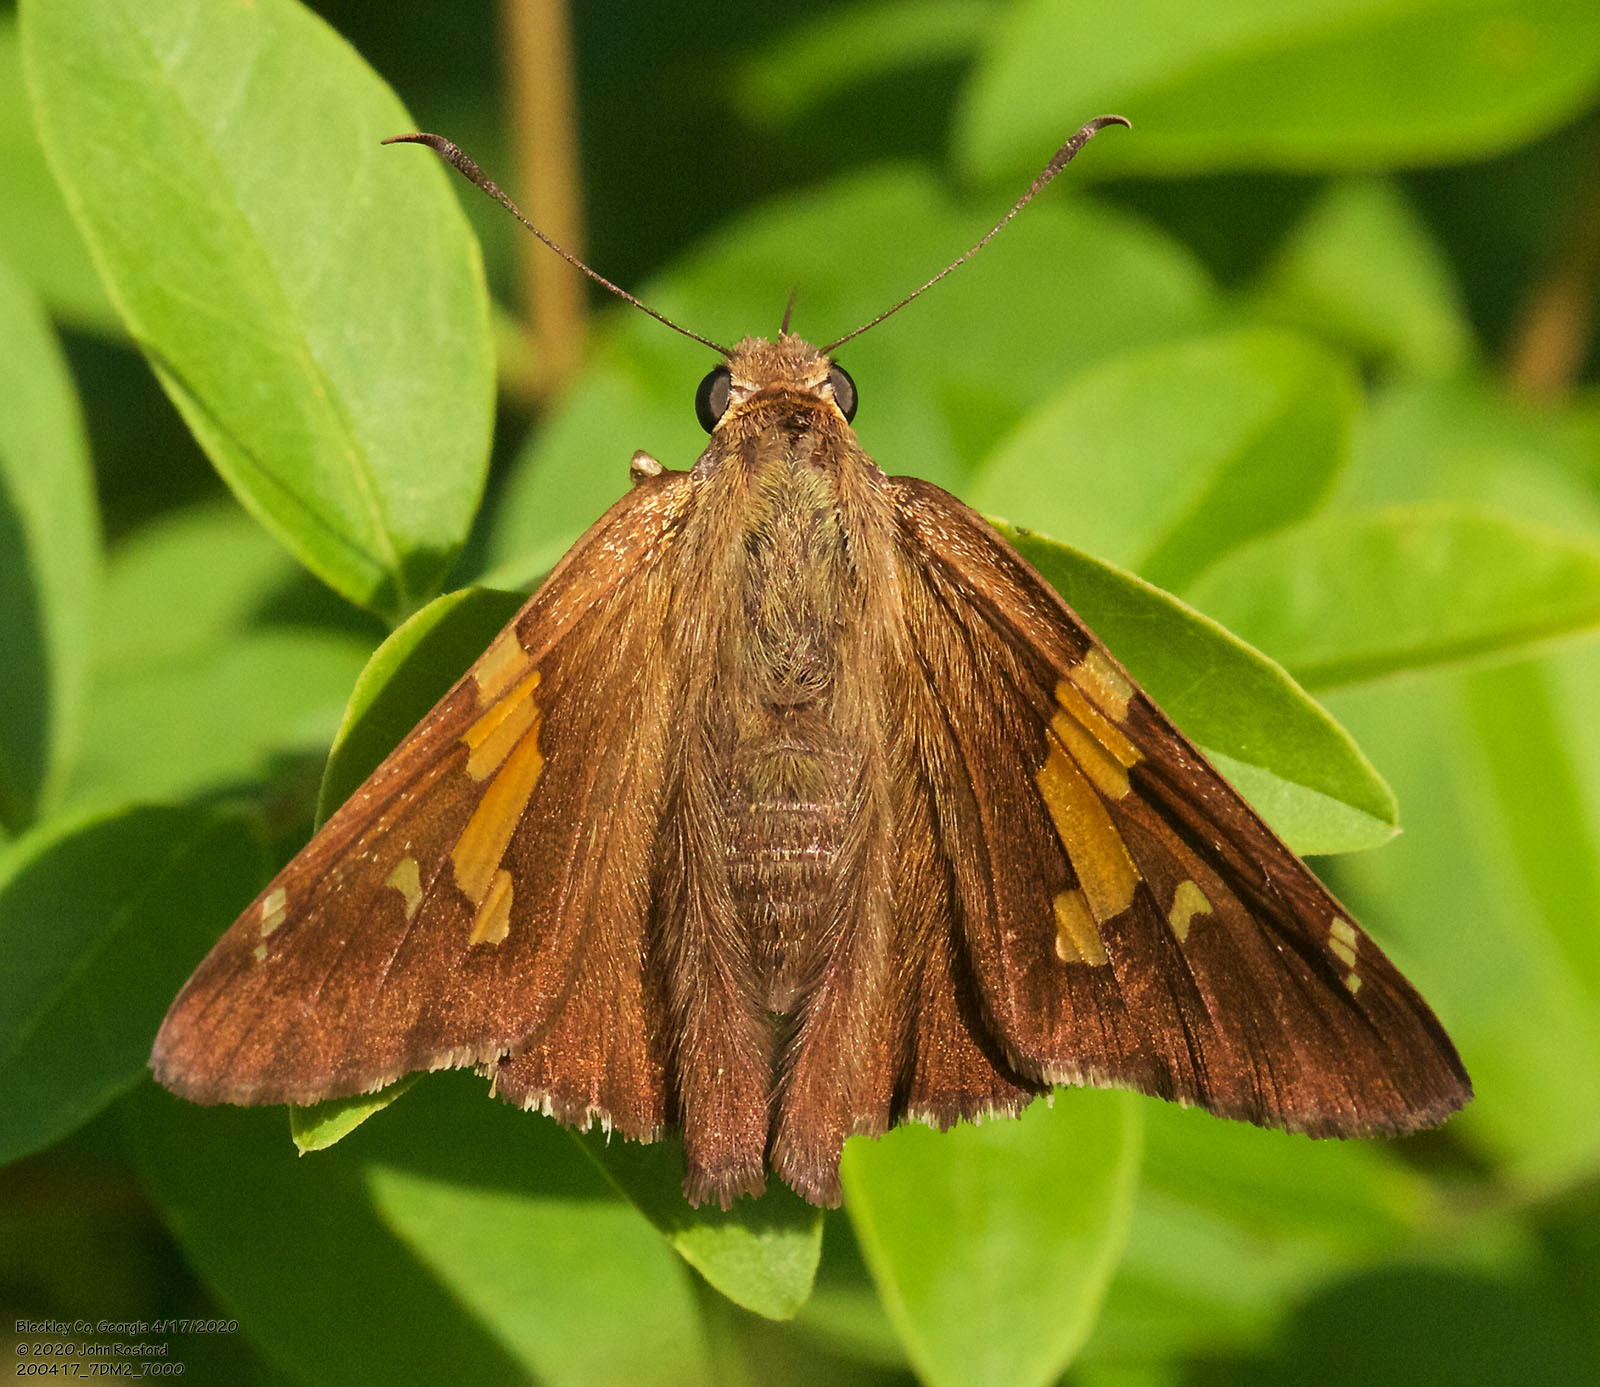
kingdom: Animalia
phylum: Arthropoda
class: Insecta
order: Lepidoptera
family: Hesperiidae
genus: Epargyreus
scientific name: Epargyreus clarus
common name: Silver-spotted skipper
